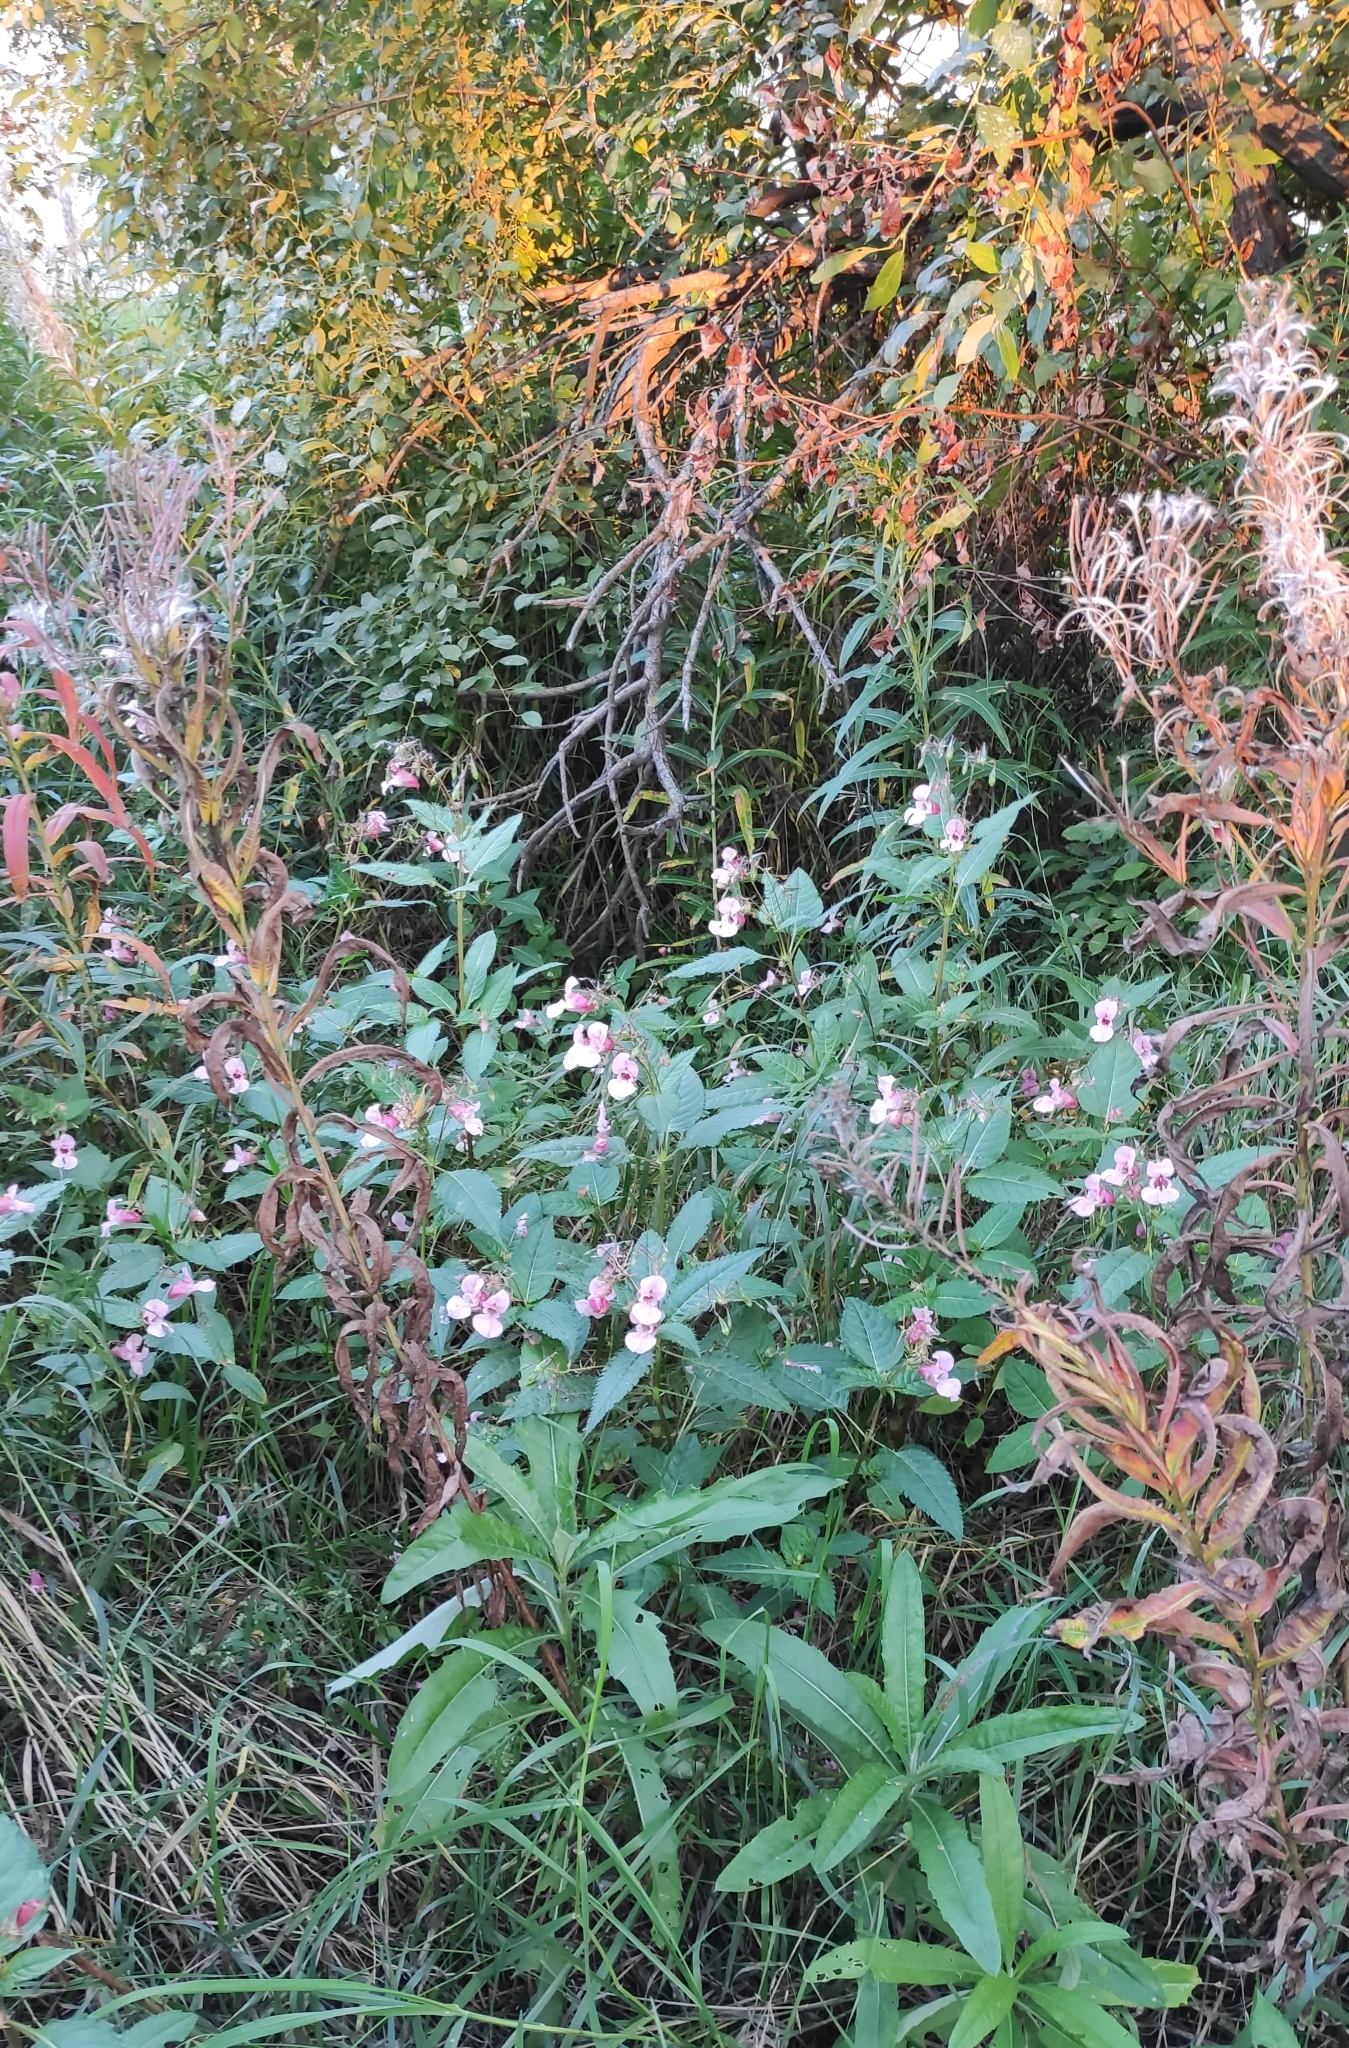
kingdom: Plantae
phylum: Tracheophyta
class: Magnoliopsida
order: Ericales
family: Balsaminaceae
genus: Impatiens
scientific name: Impatiens glandulifera
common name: Himalayan balsam
